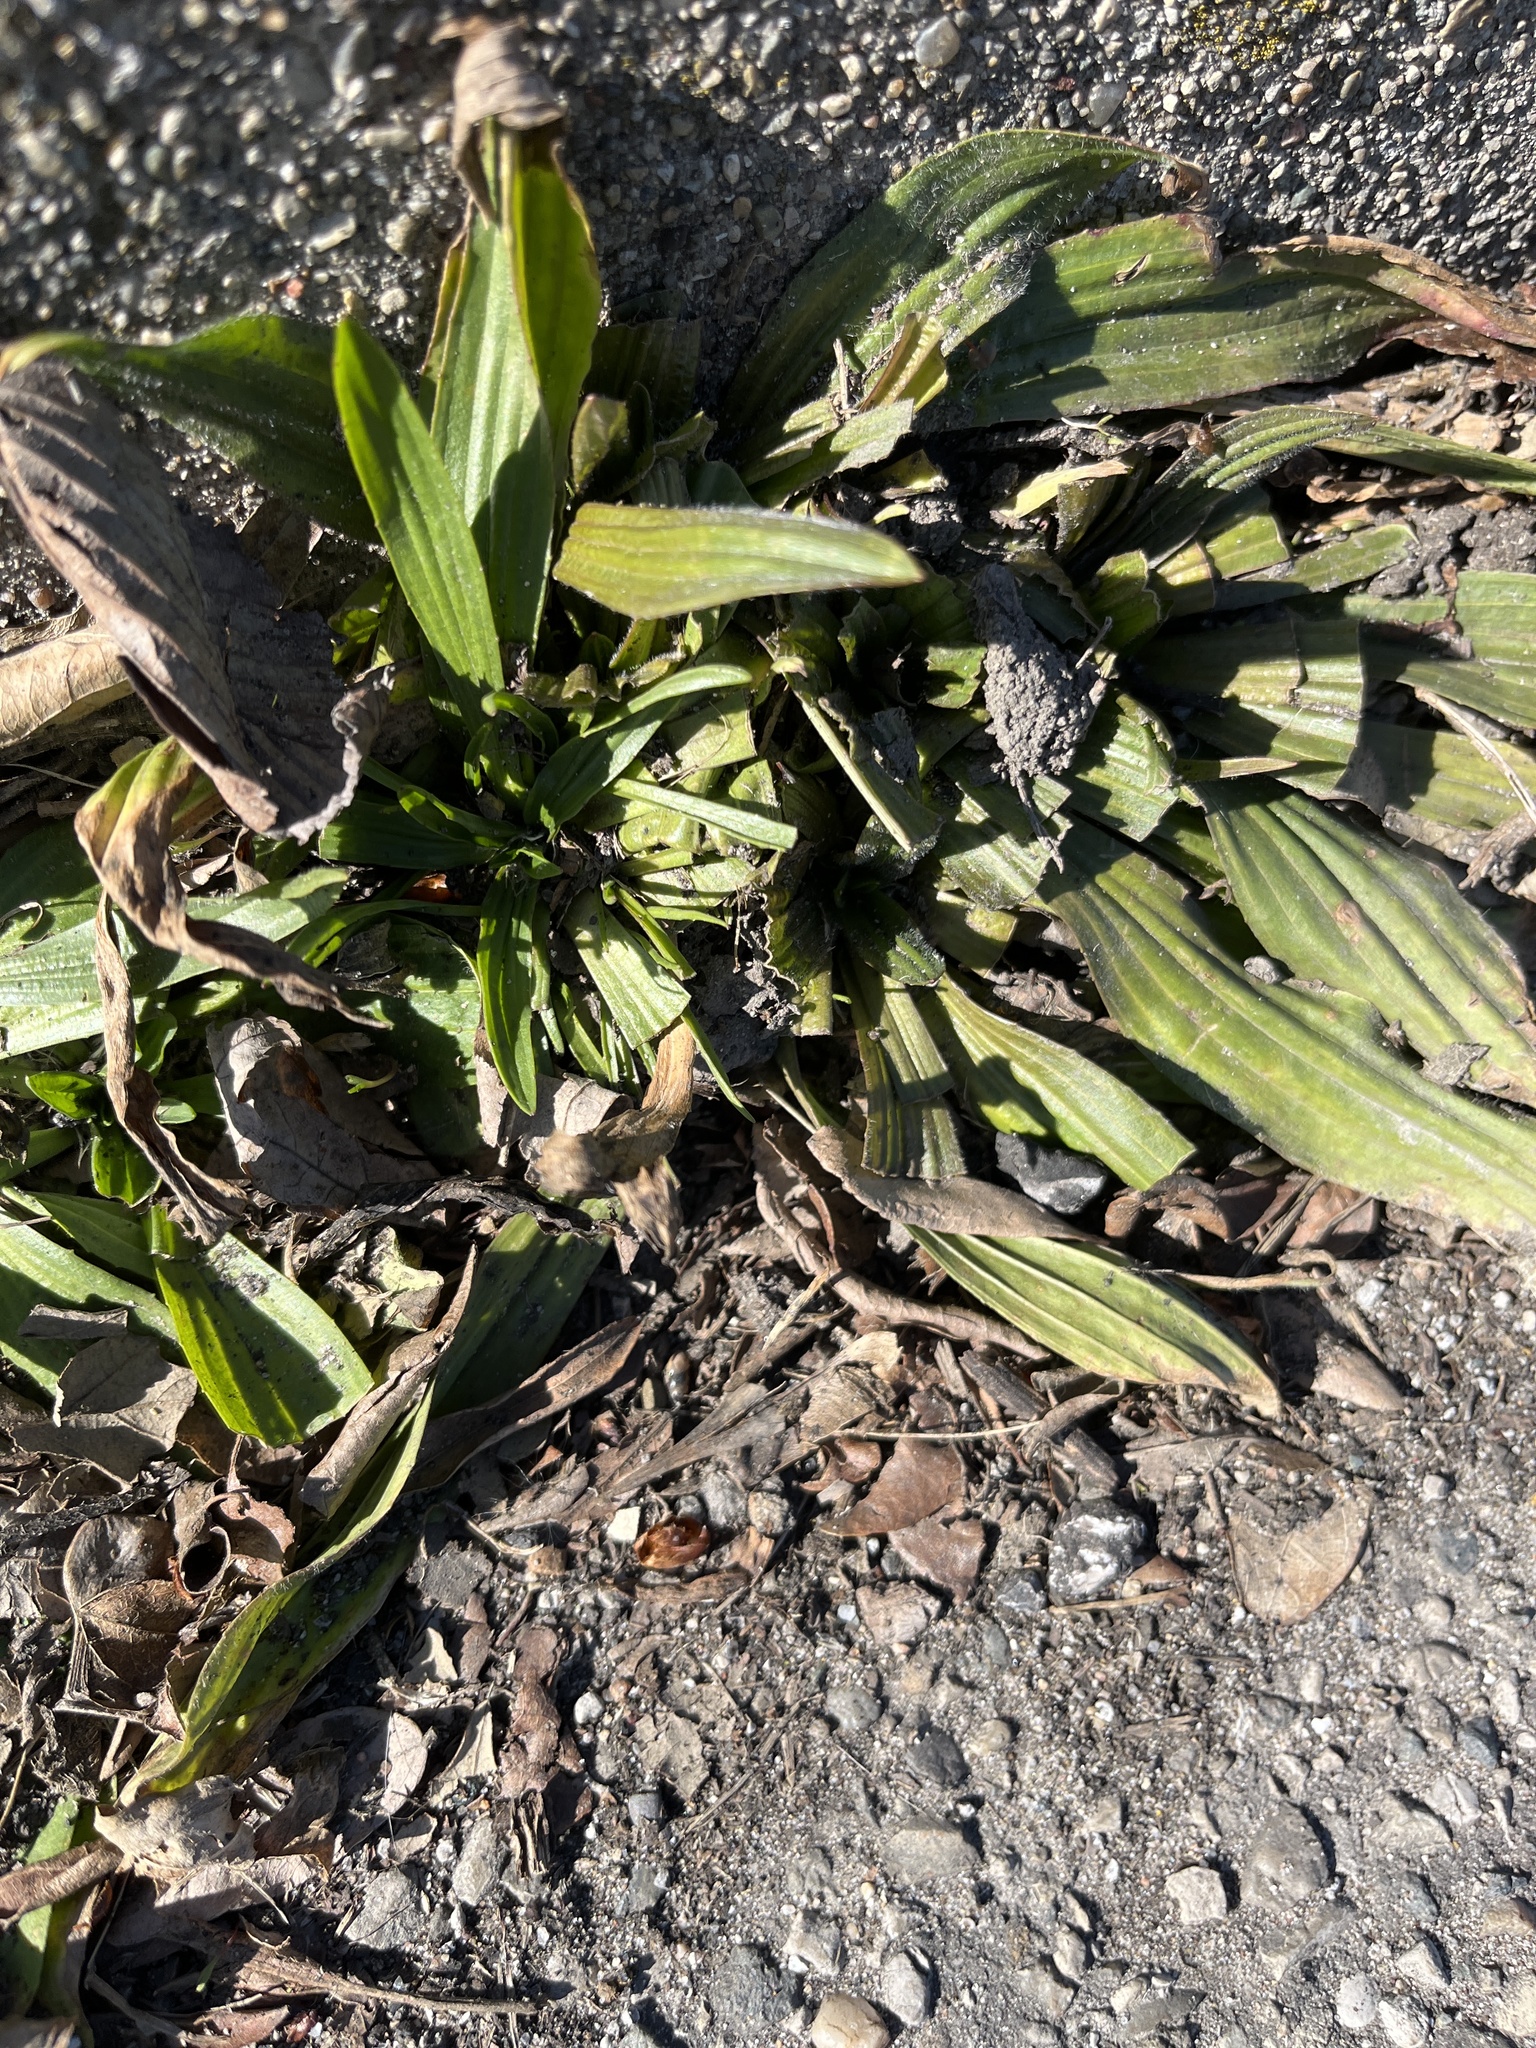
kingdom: Plantae
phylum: Tracheophyta
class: Magnoliopsida
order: Lamiales
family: Plantaginaceae
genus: Plantago
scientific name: Plantago lanceolata
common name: Ribwort plantain
